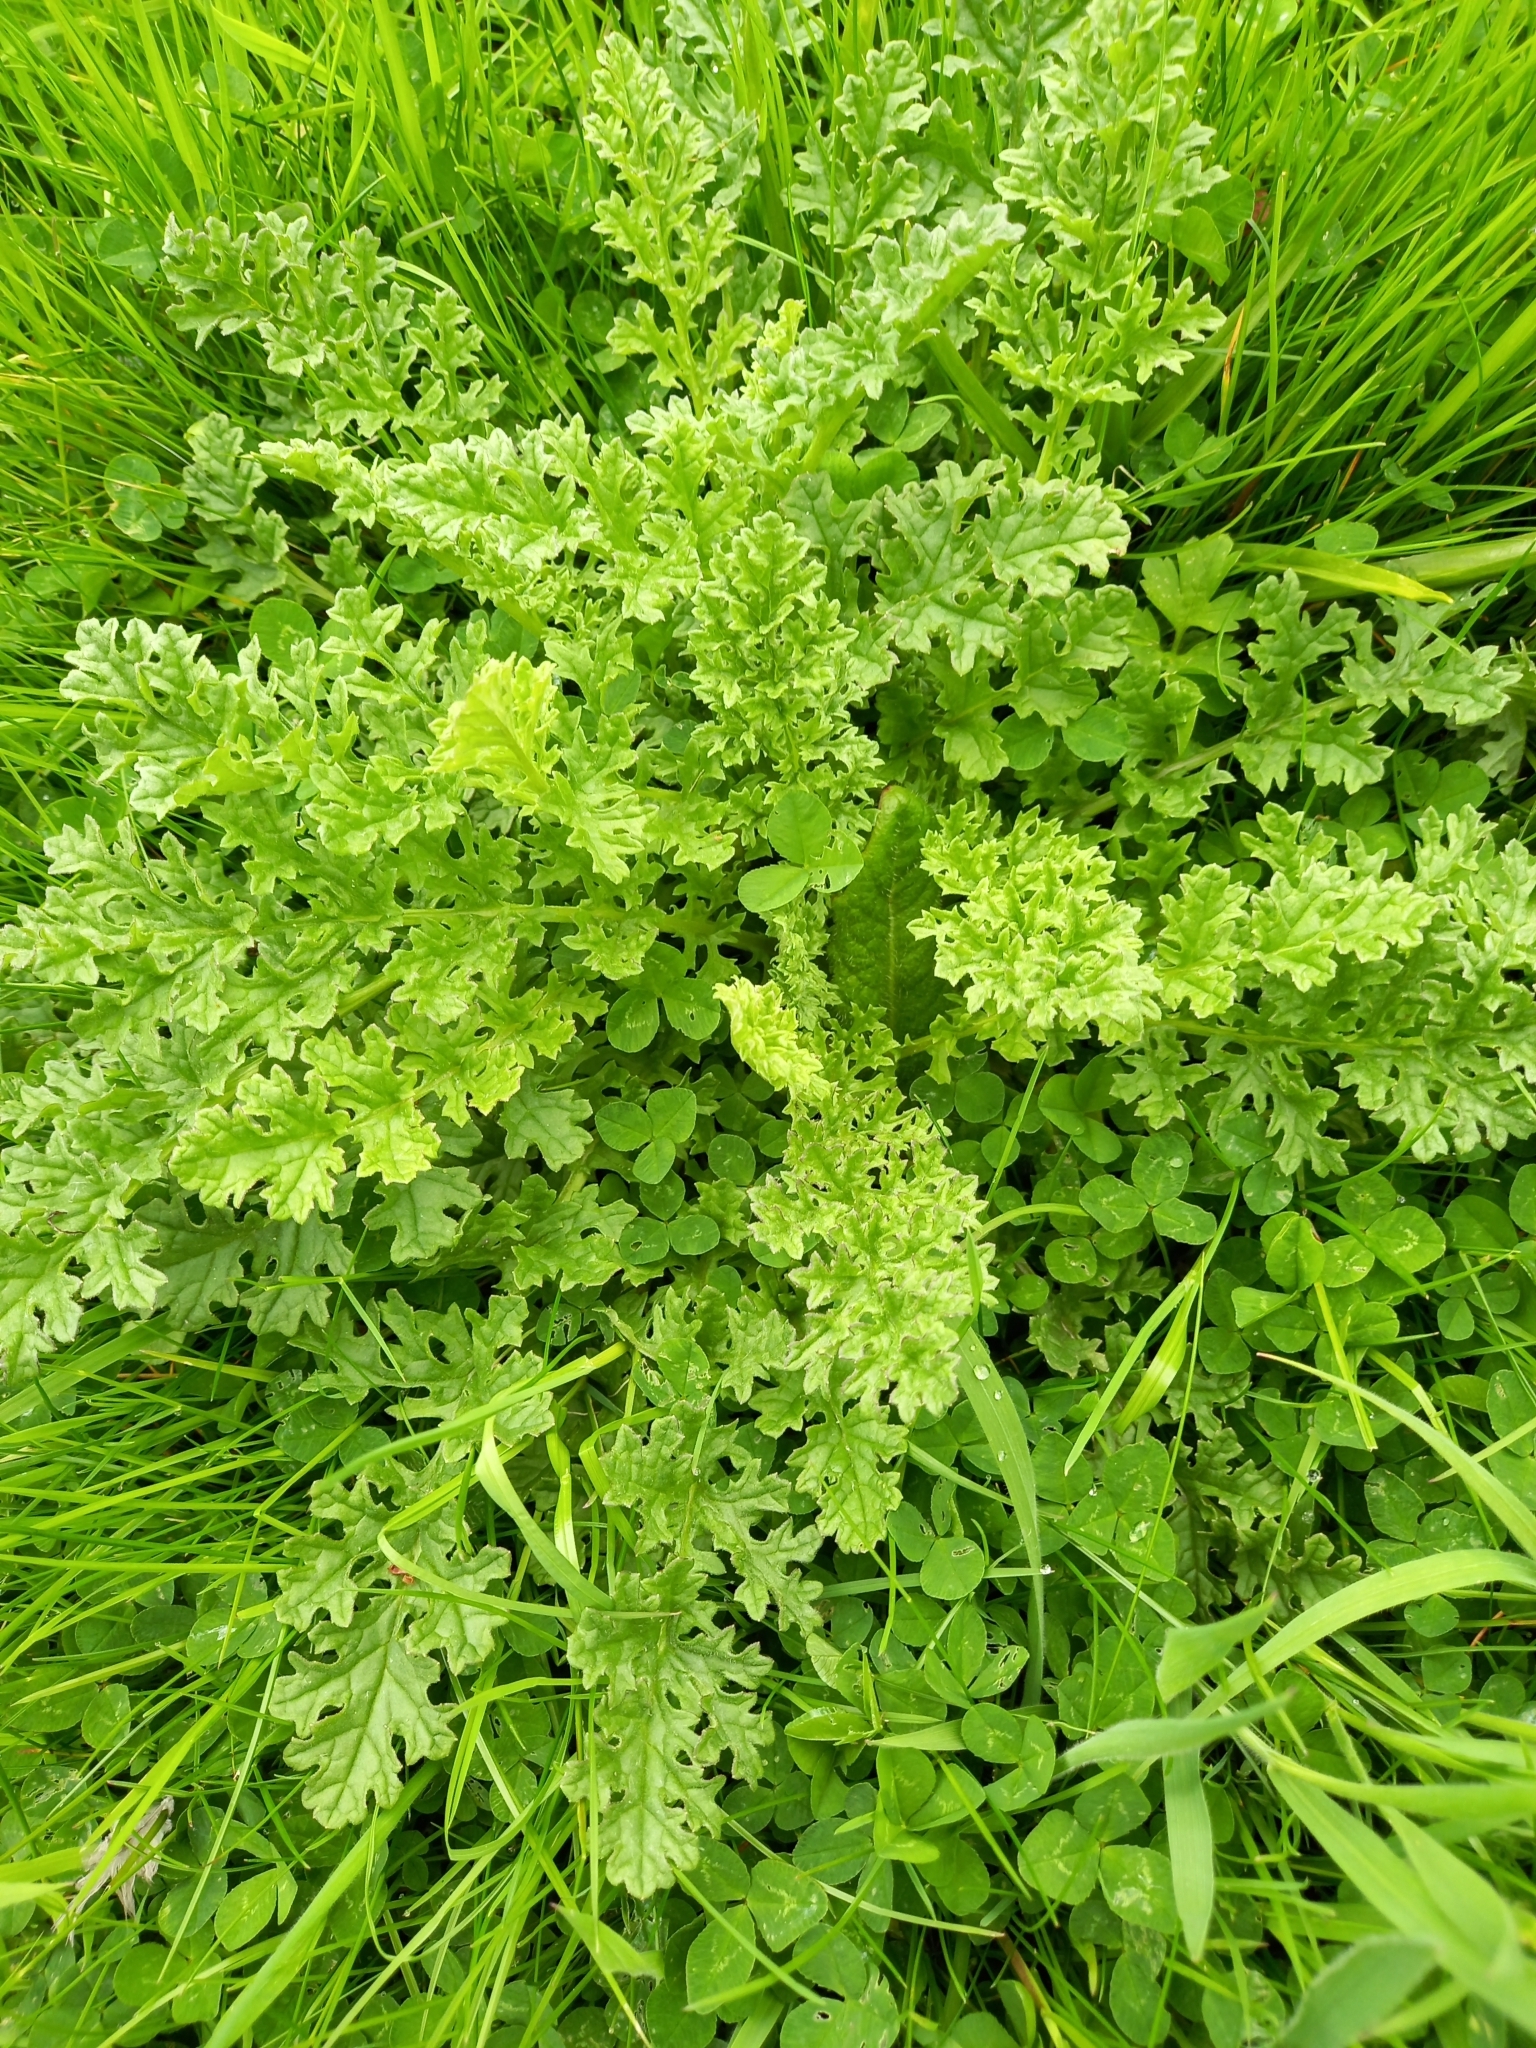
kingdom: Plantae
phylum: Tracheophyta
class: Magnoliopsida
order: Asterales
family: Asteraceae
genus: Jacobaea
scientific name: Jacobaea vulgaris
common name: Stinking willie
